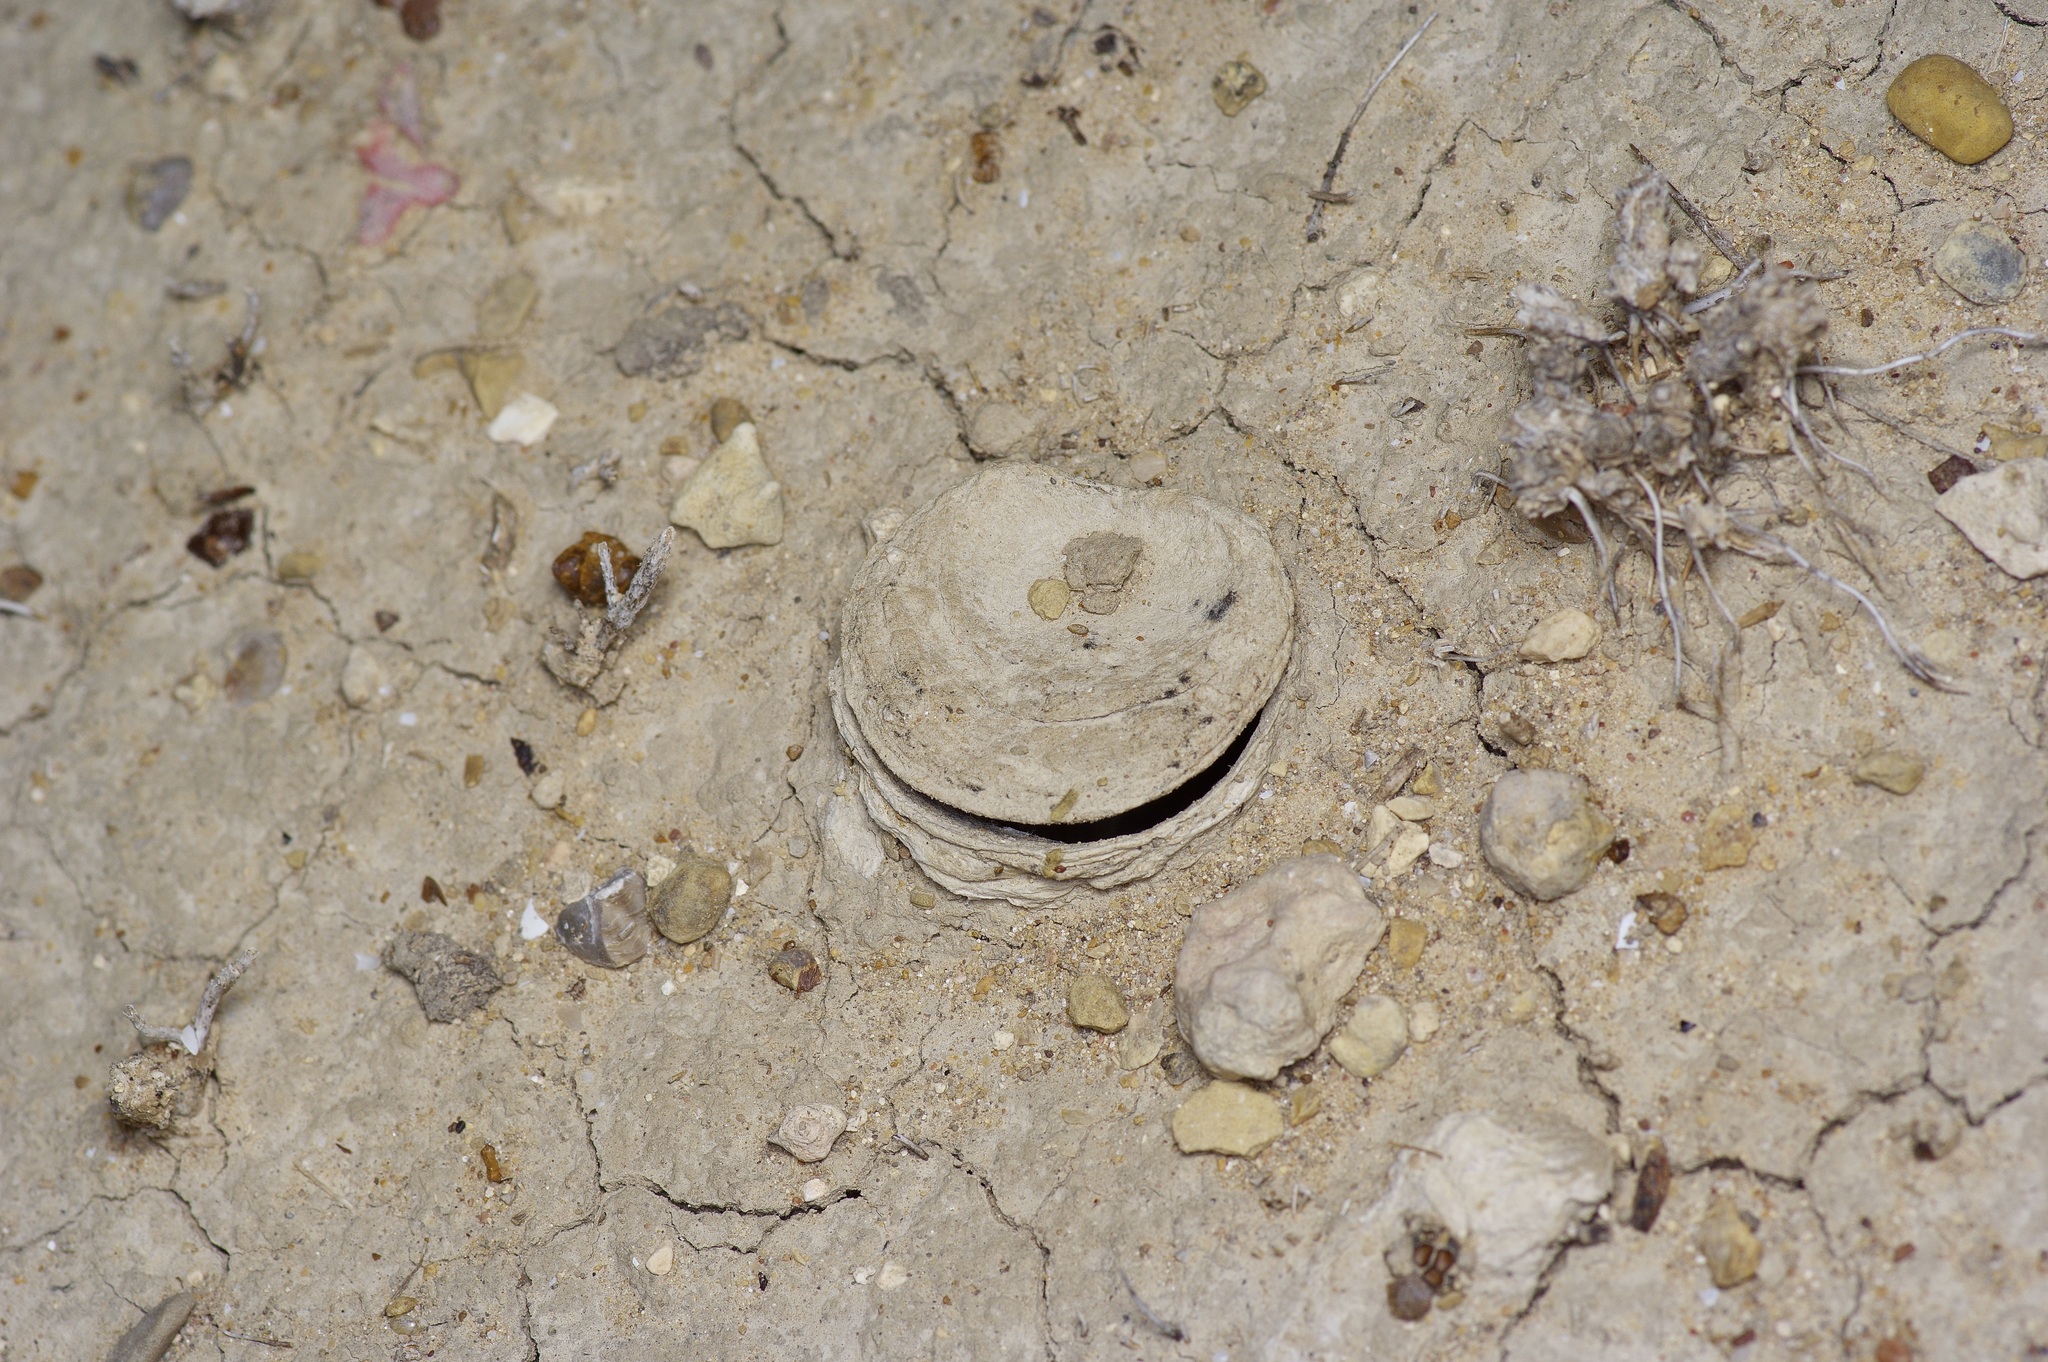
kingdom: Animalia
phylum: Arthropoda
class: Arachnida
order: Araneae
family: Halonoproctidae
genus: Ummidia
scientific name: Ummidia audouini
